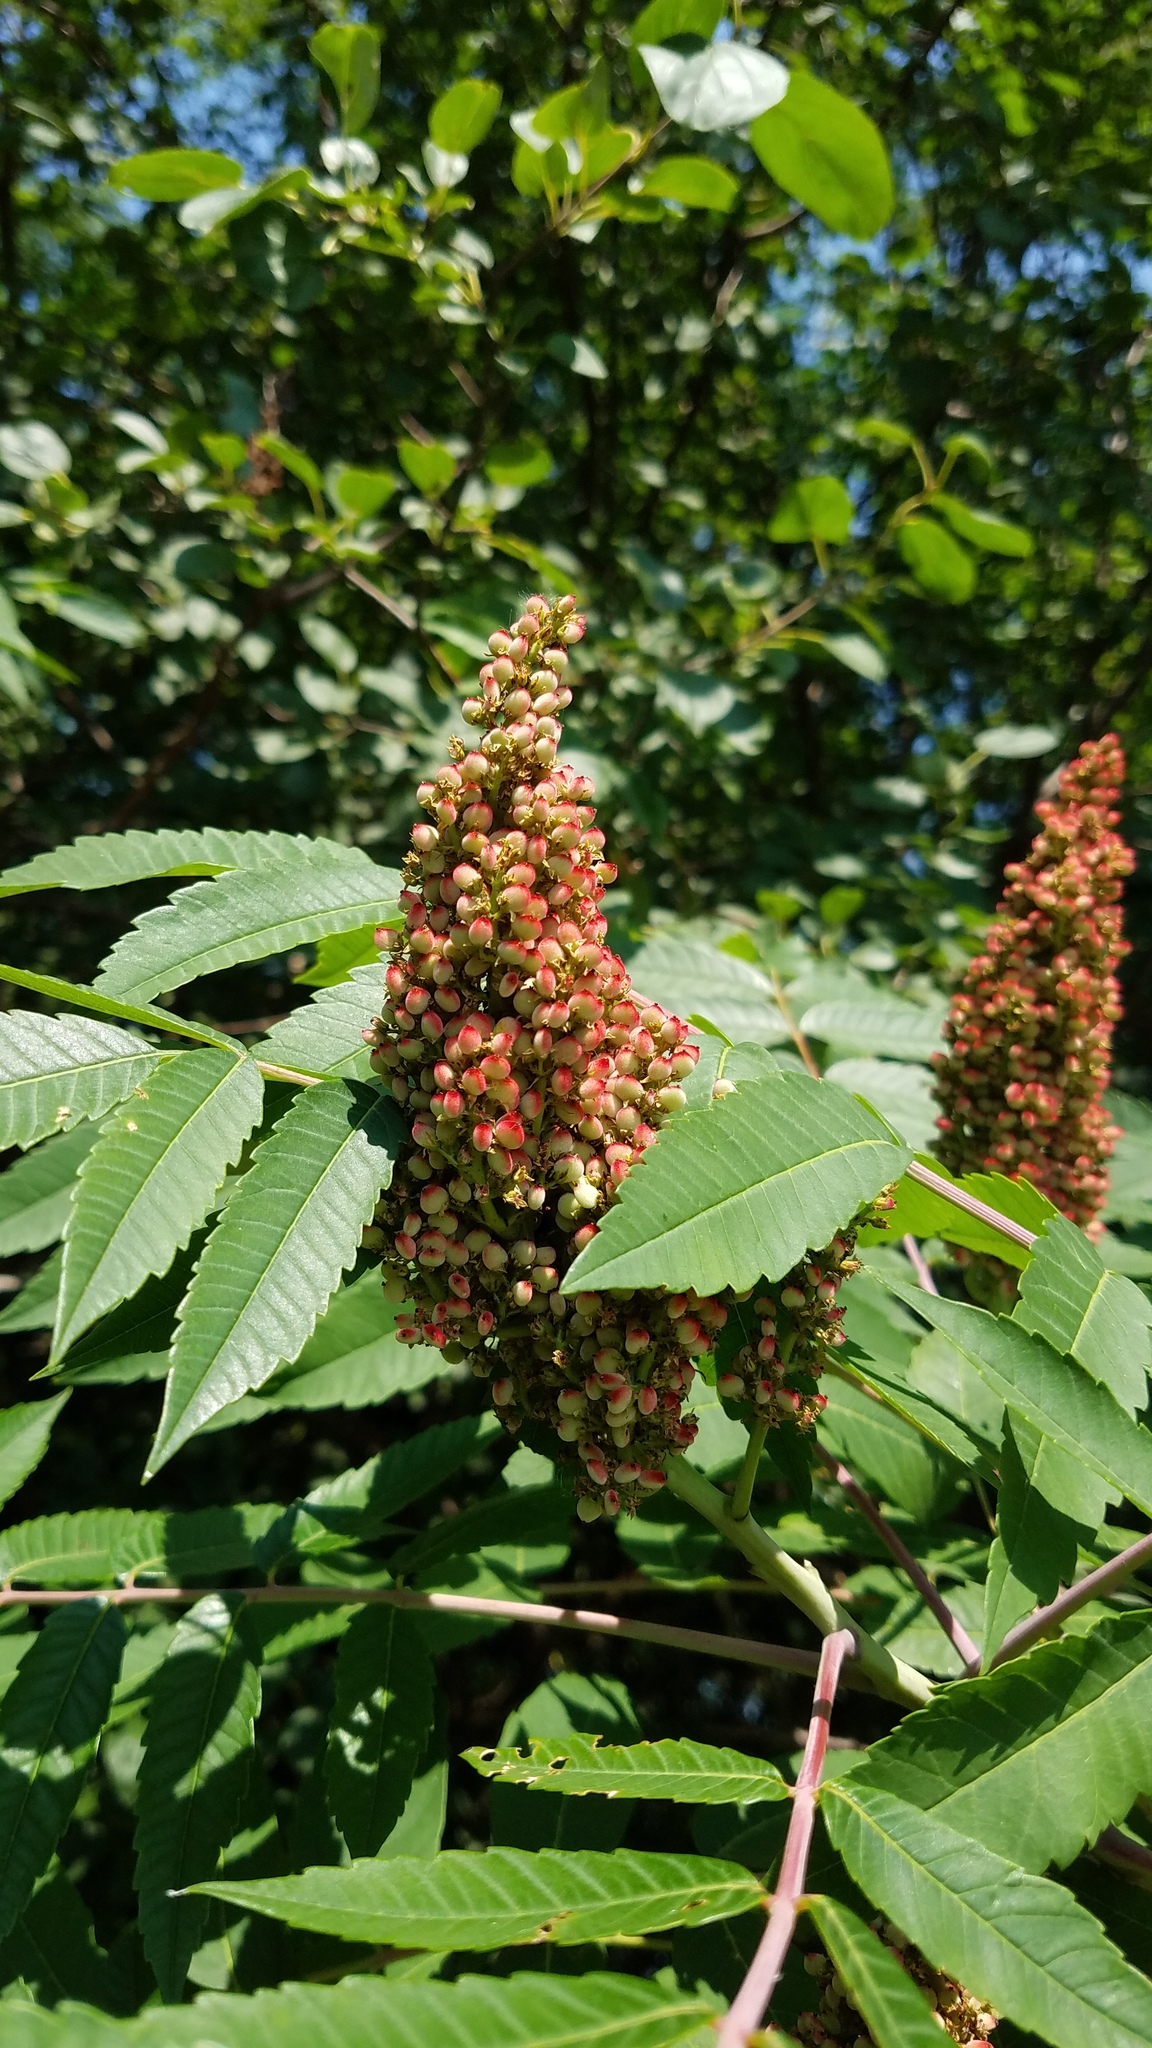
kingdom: Plantae
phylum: Tracheophyta
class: Magnoliopsida
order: Sapindales
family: Anacardiaceae
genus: Rhus
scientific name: Rhus glabra
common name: Scarlet sumac
